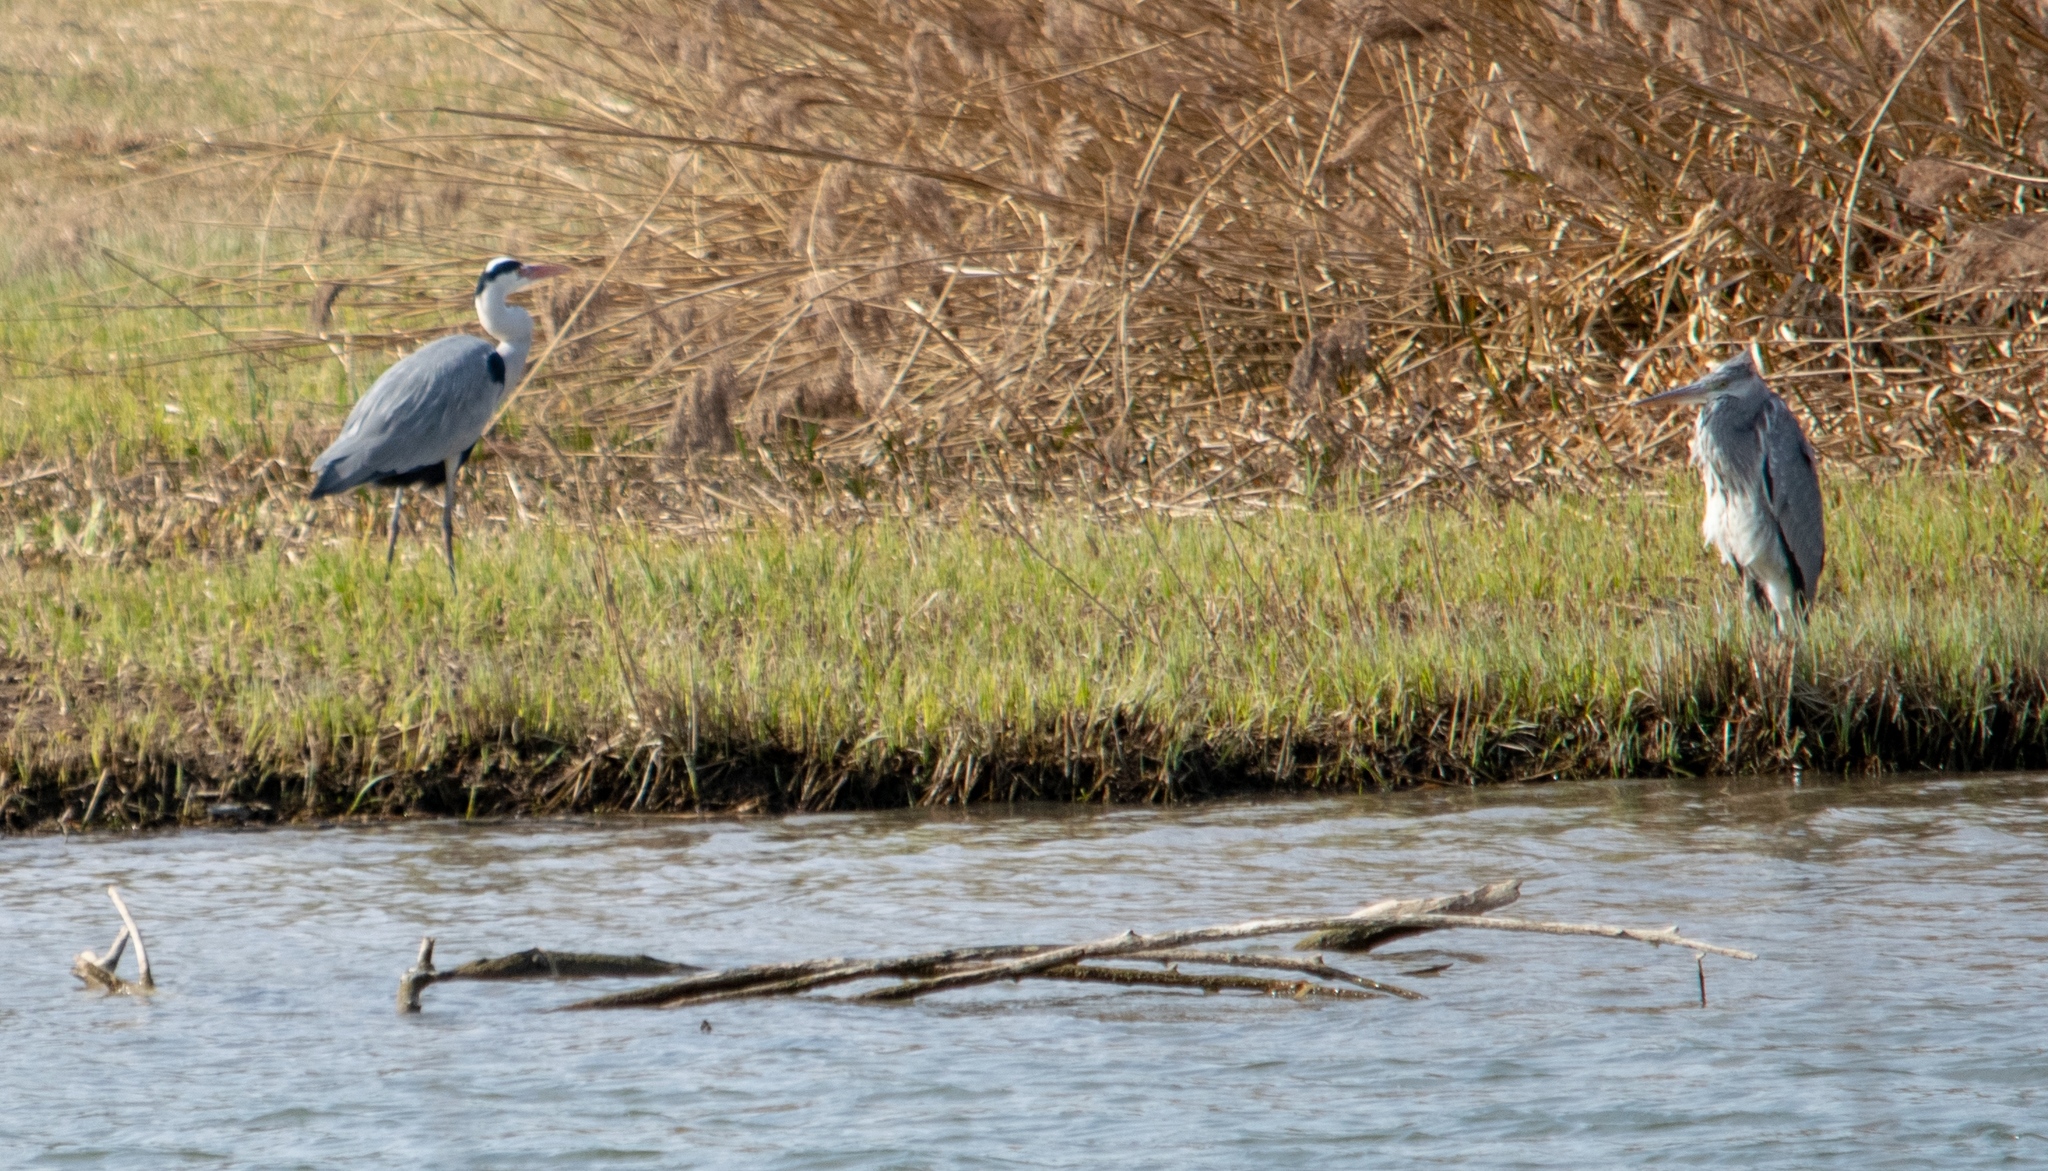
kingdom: Animalia
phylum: Chordata
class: Aves
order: Pelecaniformes
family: Ardeidae
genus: Ardea
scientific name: Ardea cinerea
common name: Grey heron
